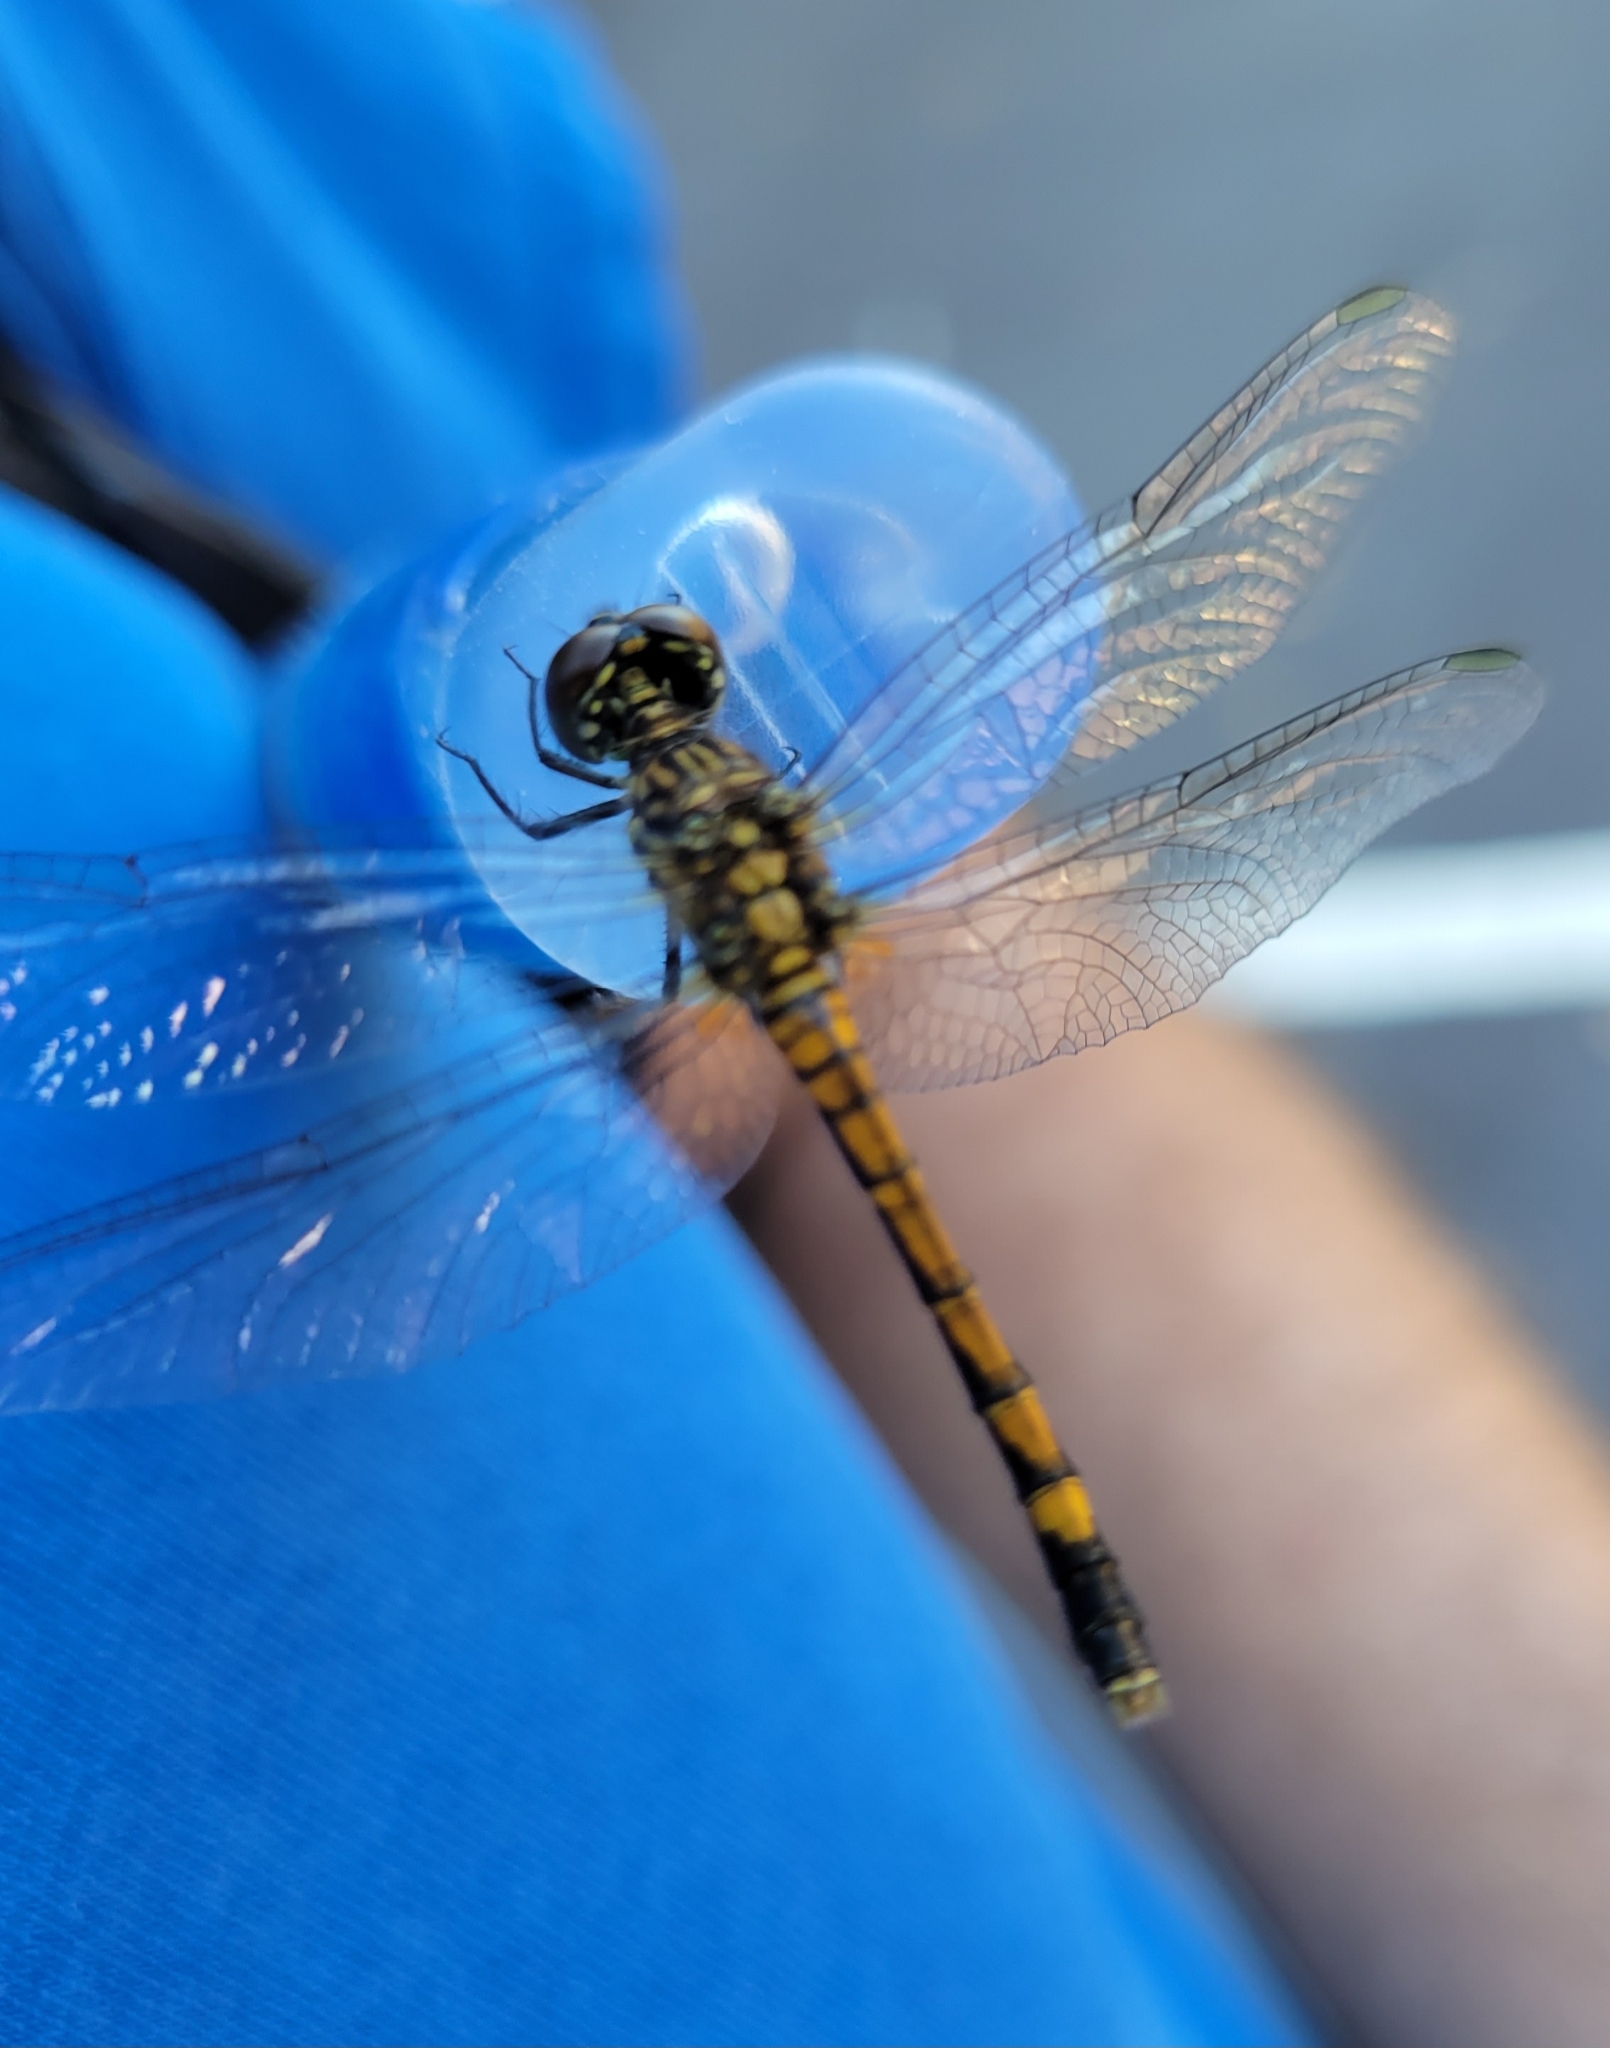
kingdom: Animalia
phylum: Arthropoda
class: Insecta
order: Odonata
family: Libellulidae
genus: Erythrodiplax
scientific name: Erythrodiplax berenice
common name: Seaside dragonlet
